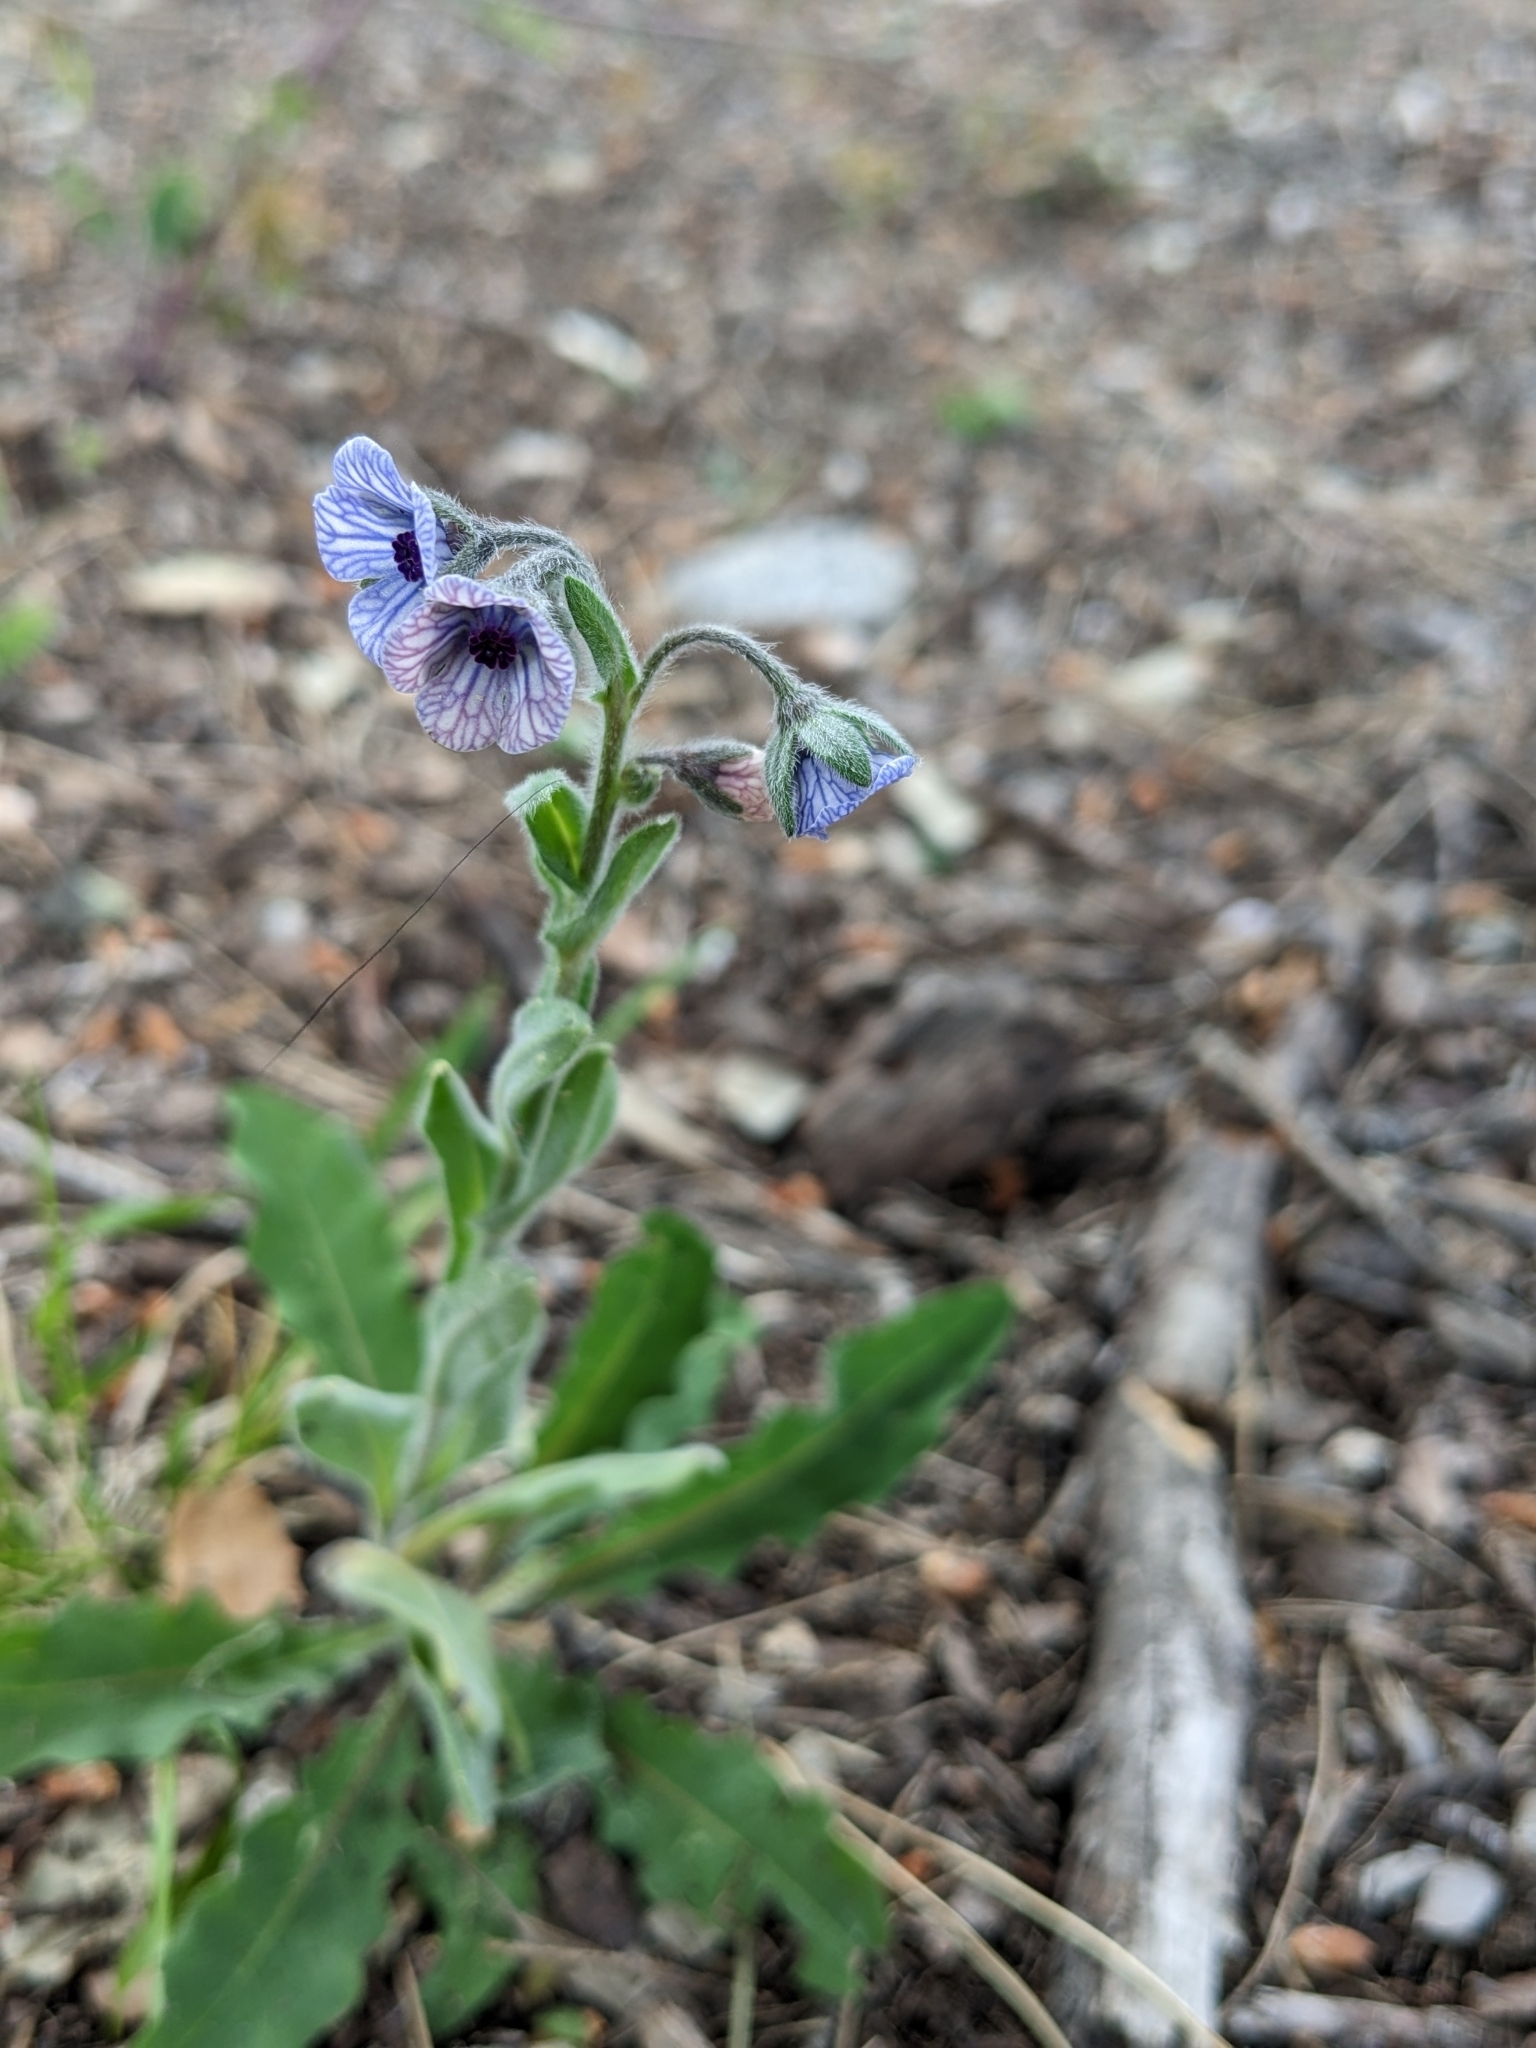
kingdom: Plantae
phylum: Tracheophyta
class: Magnoliopsida
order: Boraginales
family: Boraginaceae
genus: Cynoglossum
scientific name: Cynoglossum creticum
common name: Blue hound's tongue
